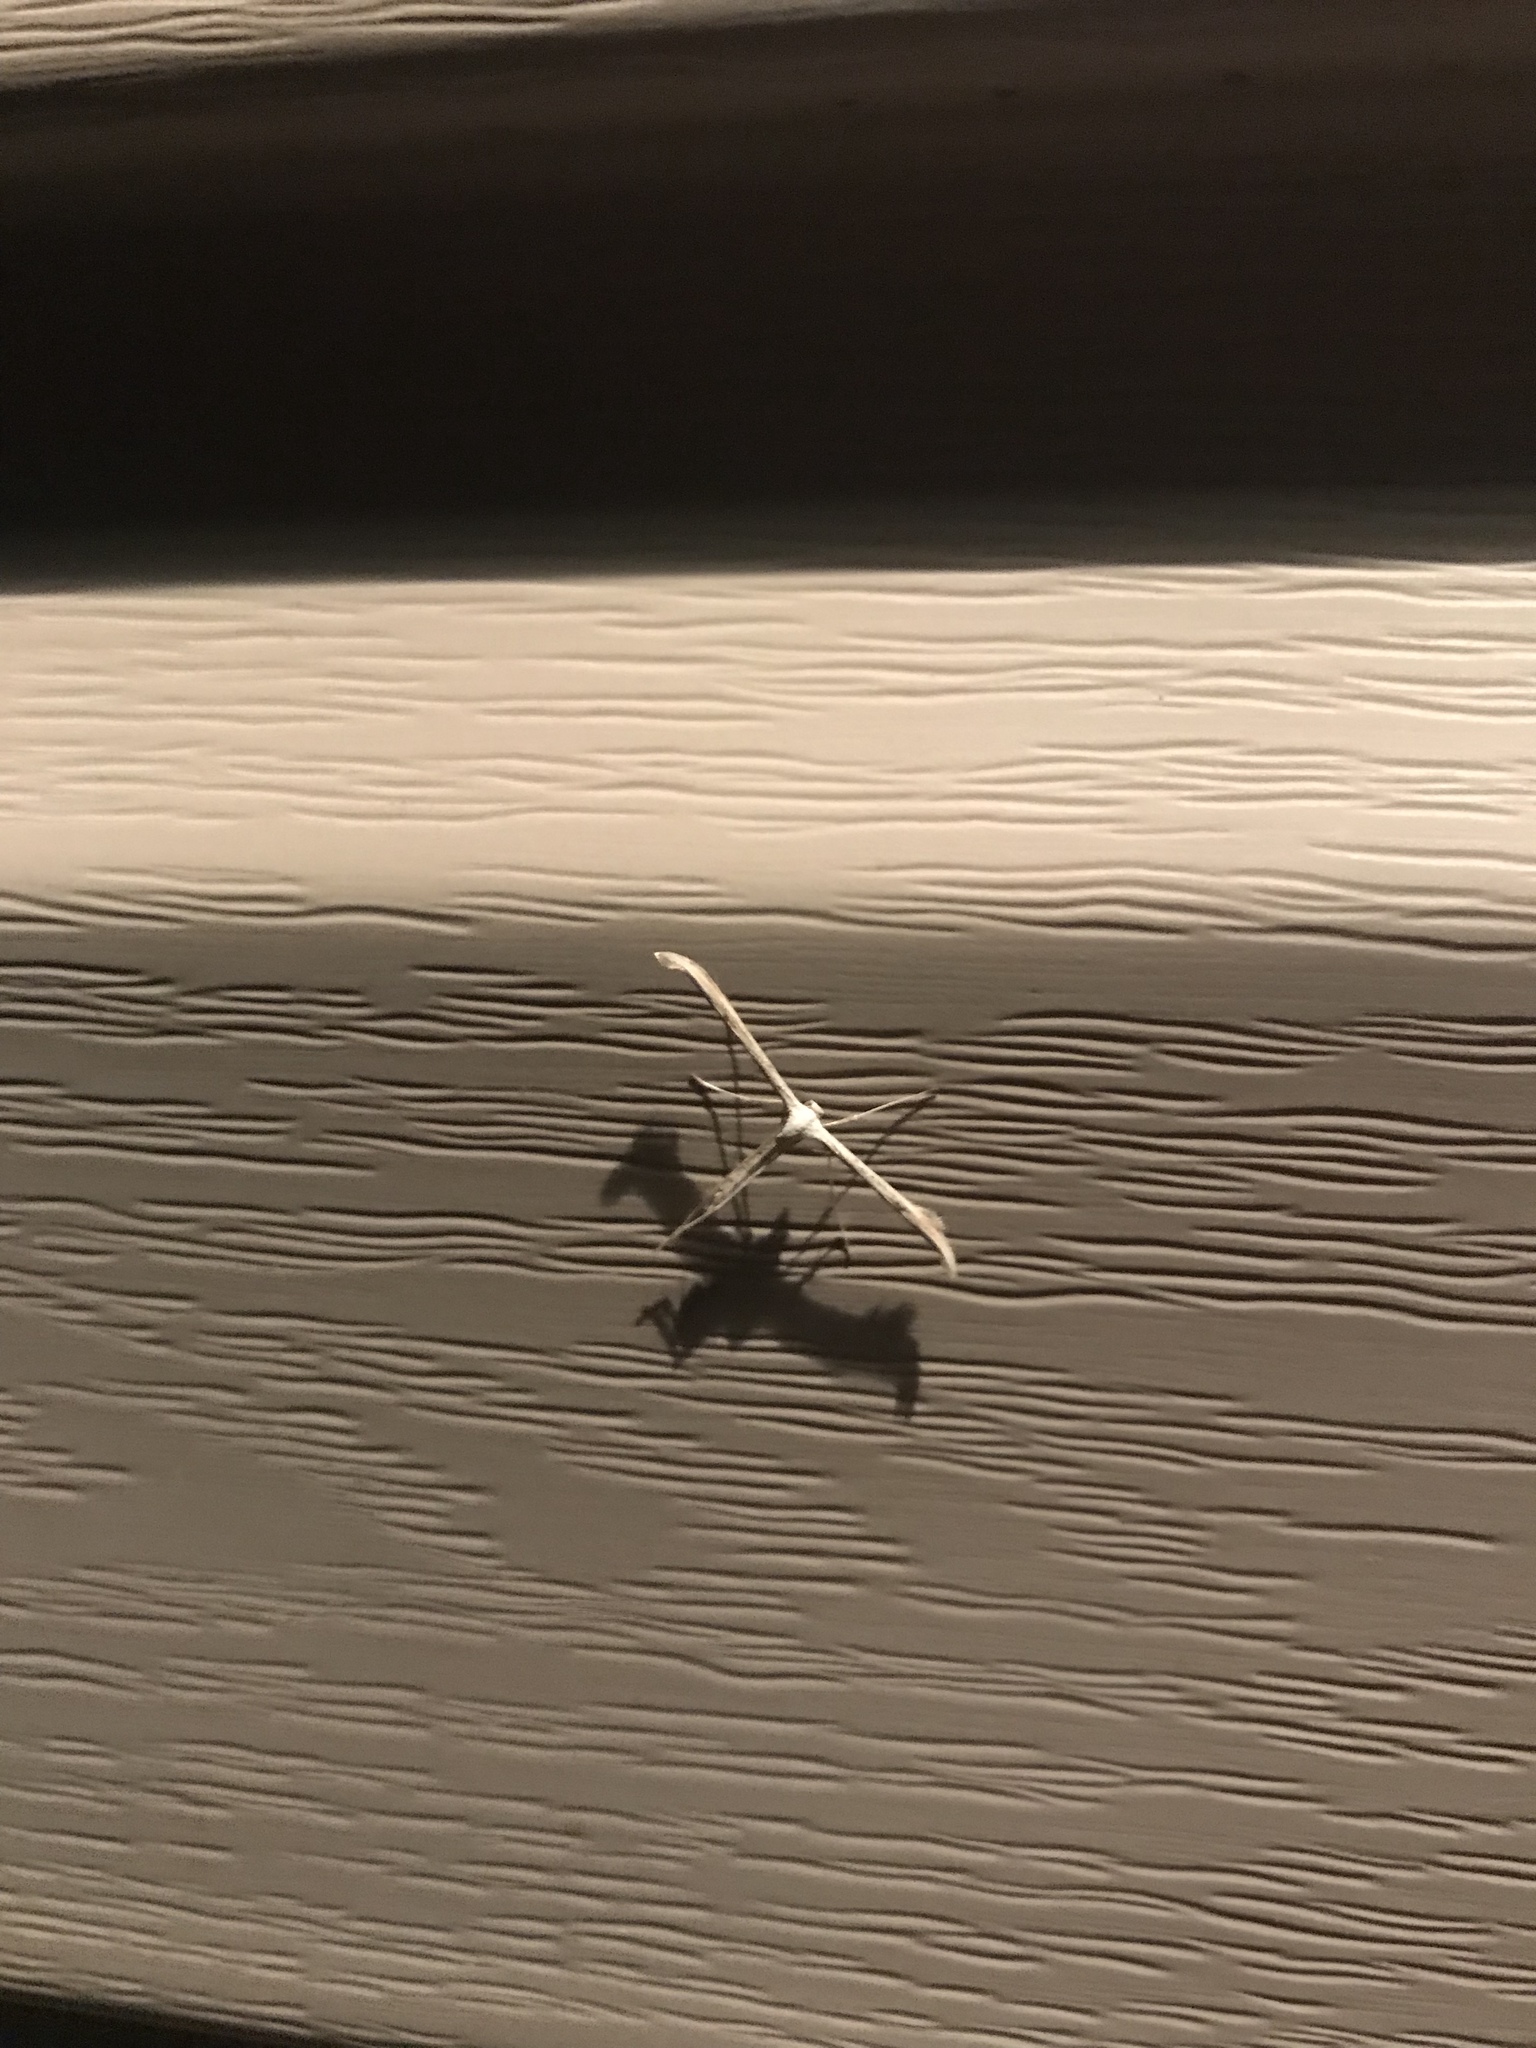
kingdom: Animalia
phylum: Arthropoda
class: Insecta
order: Lepidoptera
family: Pterophoridae
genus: Emmelina
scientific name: Emmelina monodactyla
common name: Common plume
